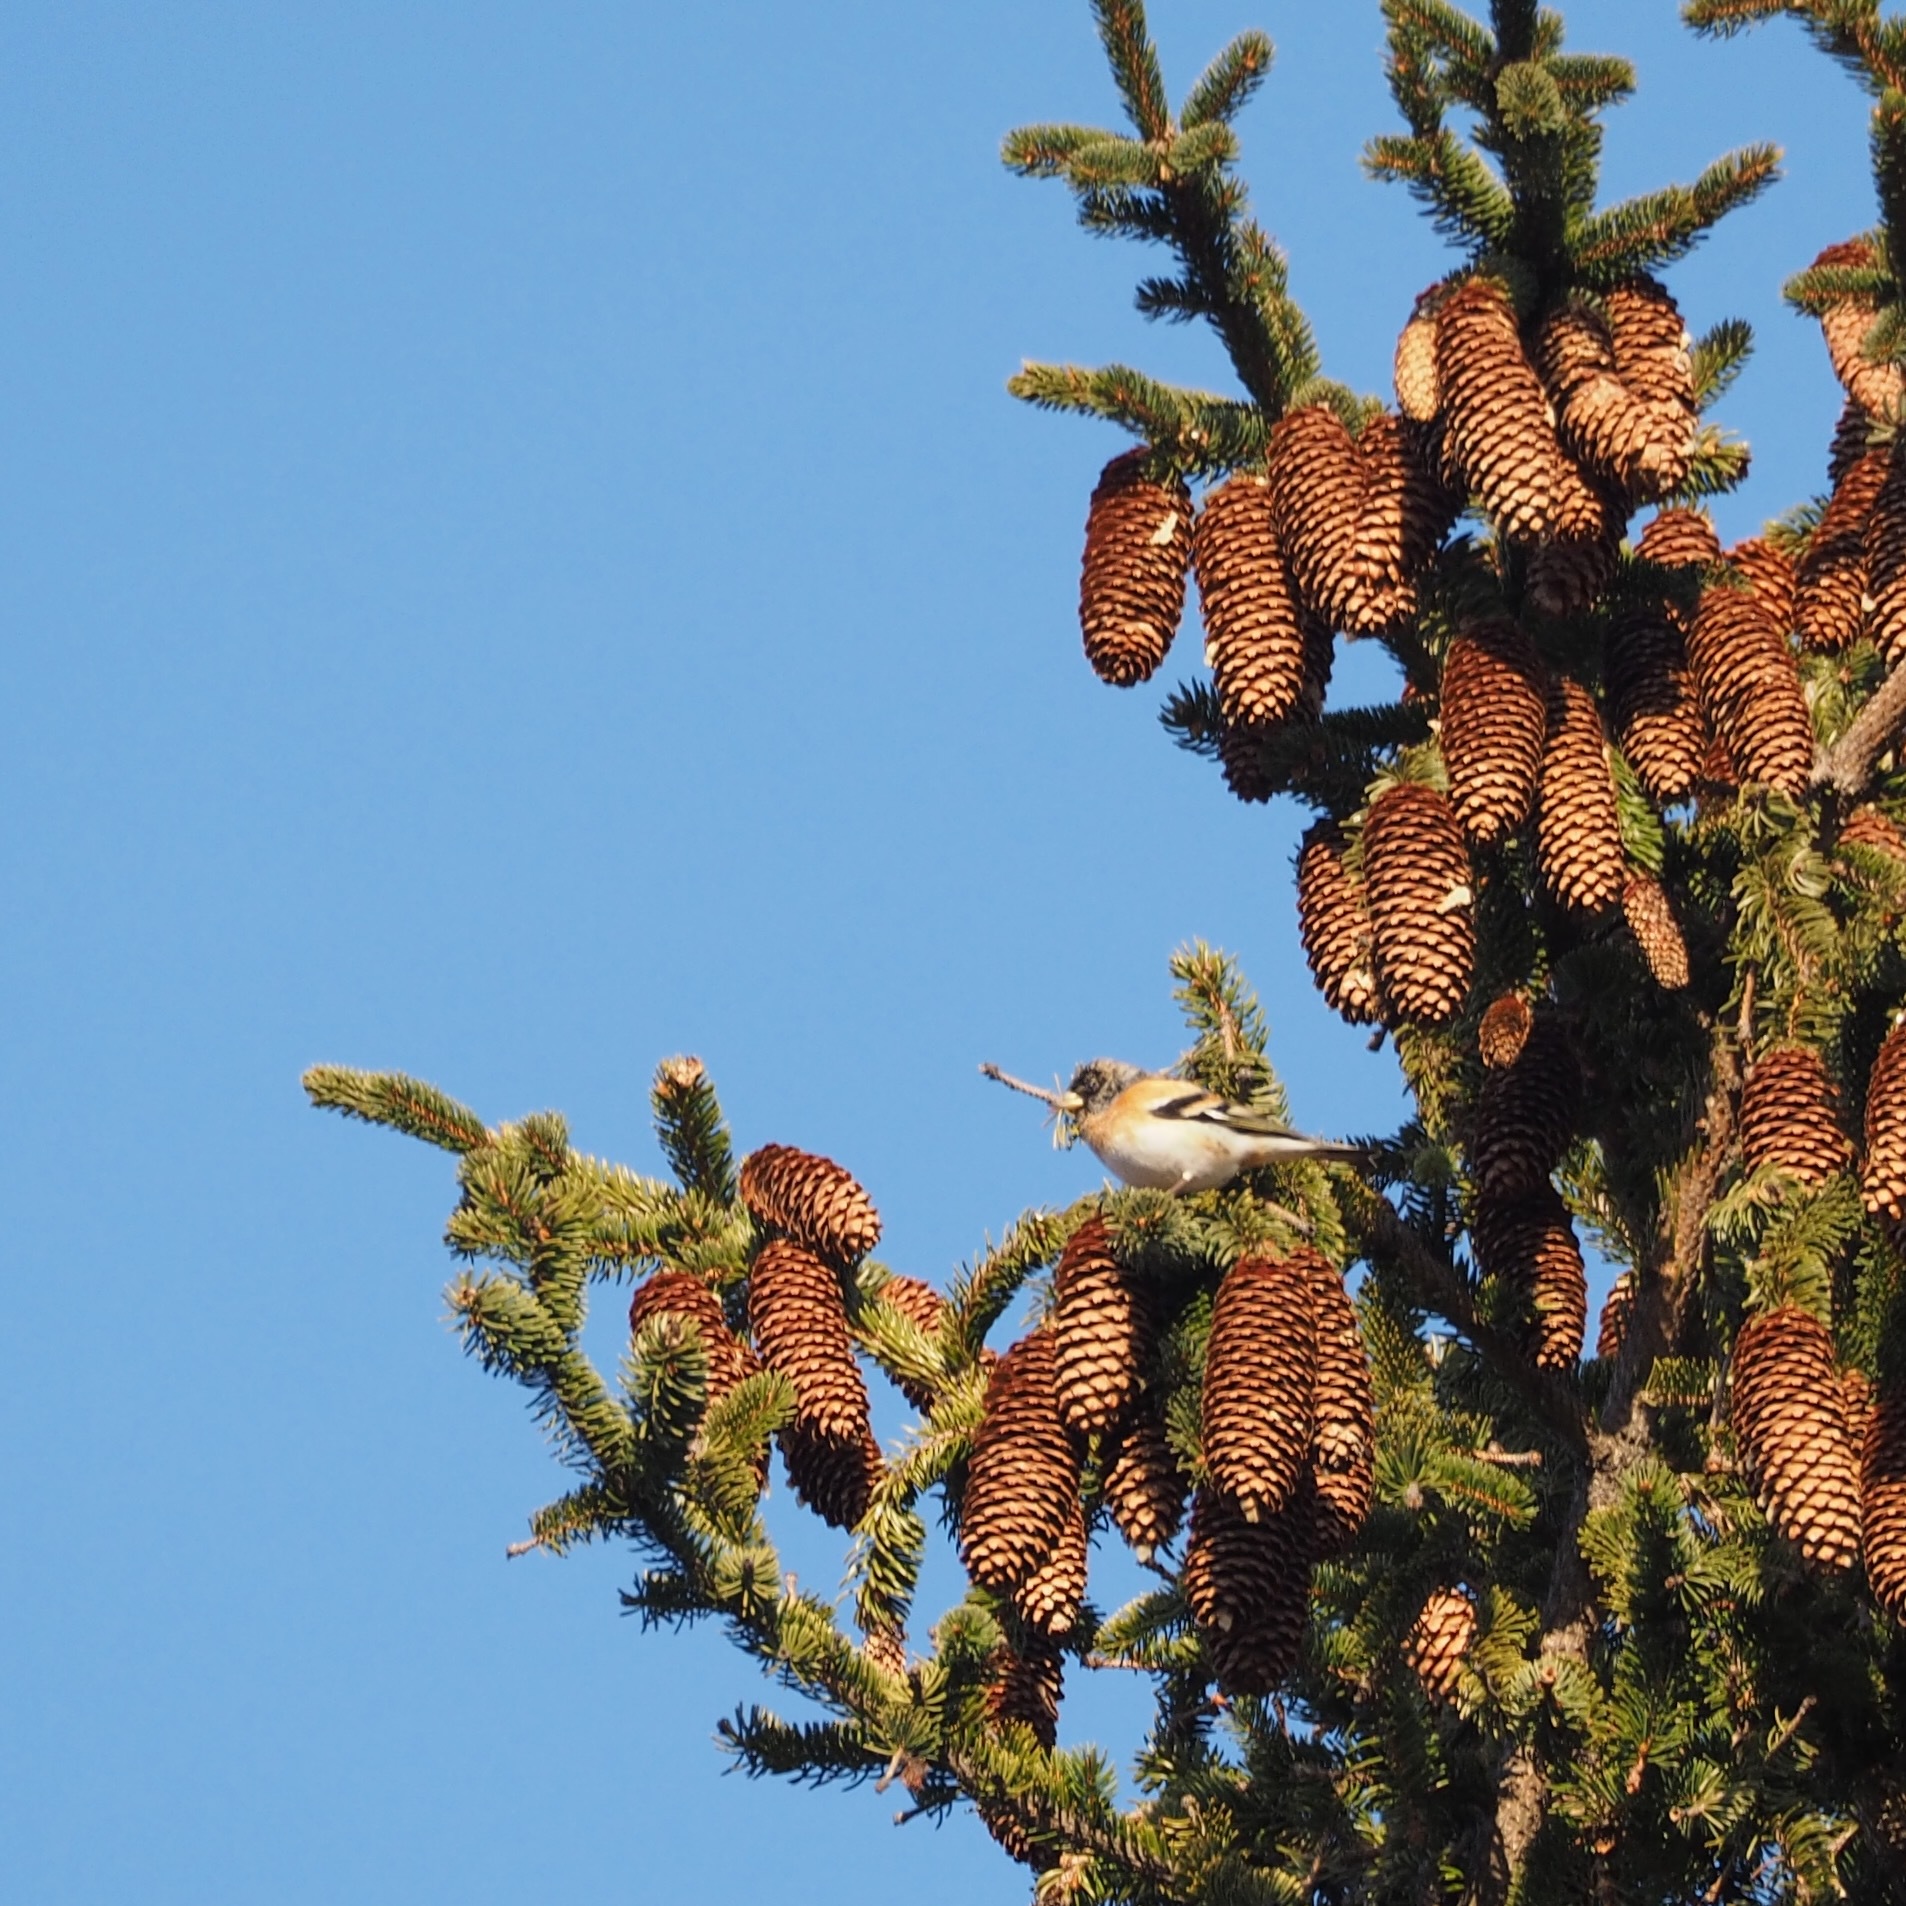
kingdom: Animalia
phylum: Chordata
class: Aves
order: Passeriformes
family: Fringillidae
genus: Fringilla
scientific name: Fringilla montifringilla
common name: Brambling
